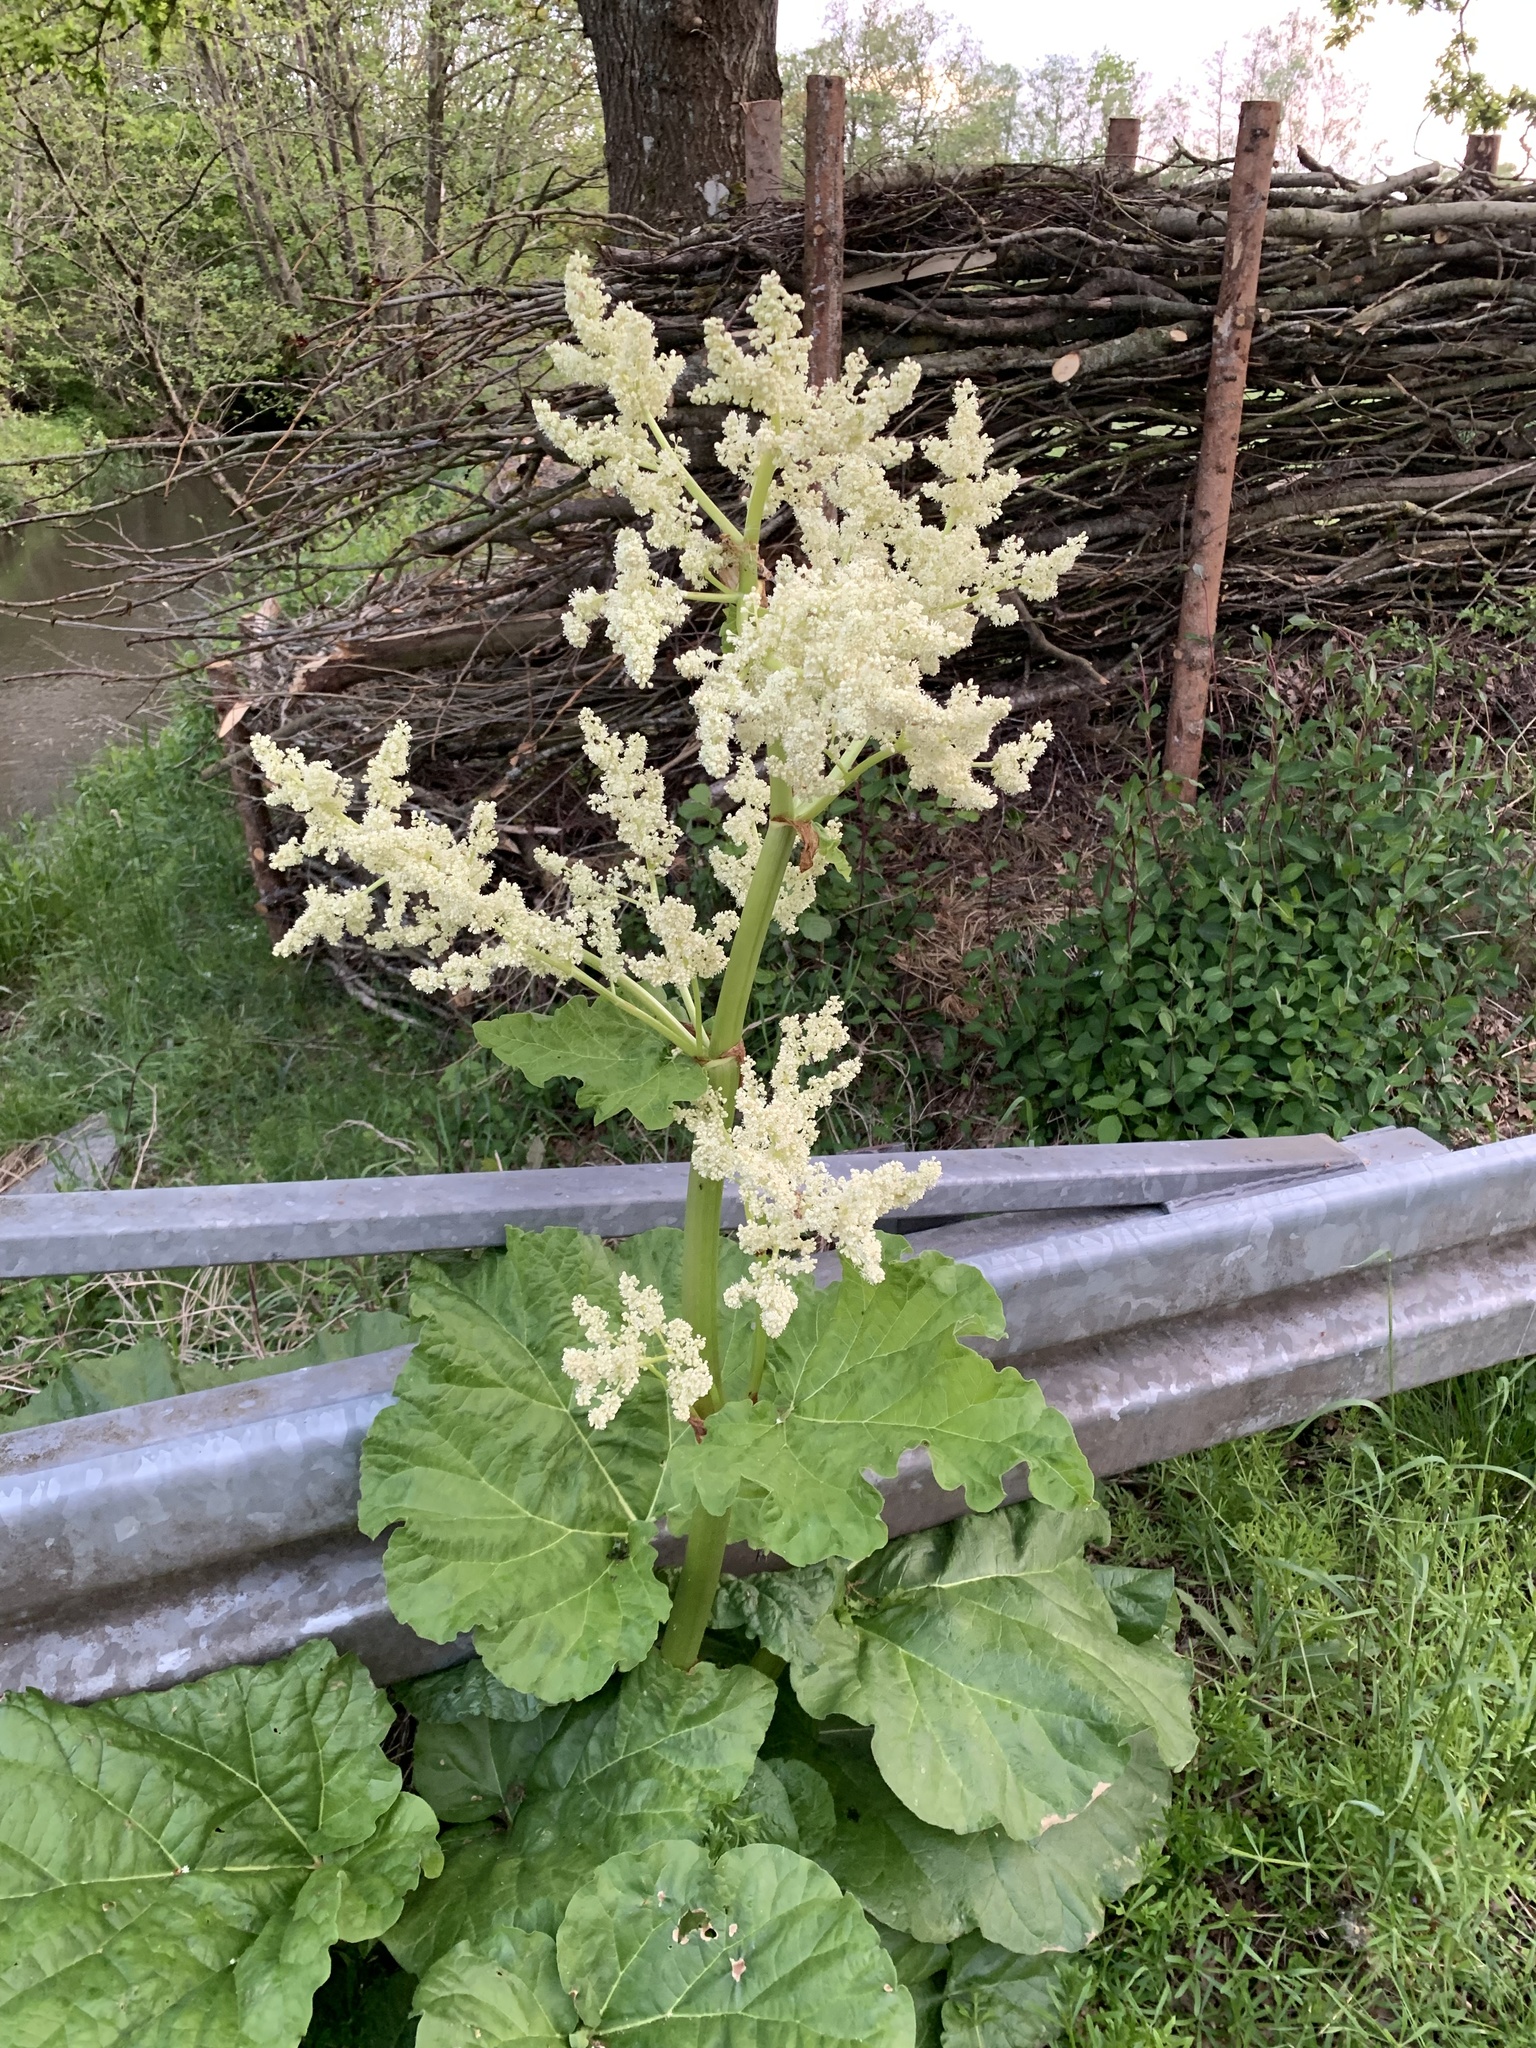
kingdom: Plantae
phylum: Tracheophyta
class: Magnoliopsida
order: Caryophyllales
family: Polygonaceae
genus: Rheum
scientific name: Rheum rhabarbarum
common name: Garden rhubarb
